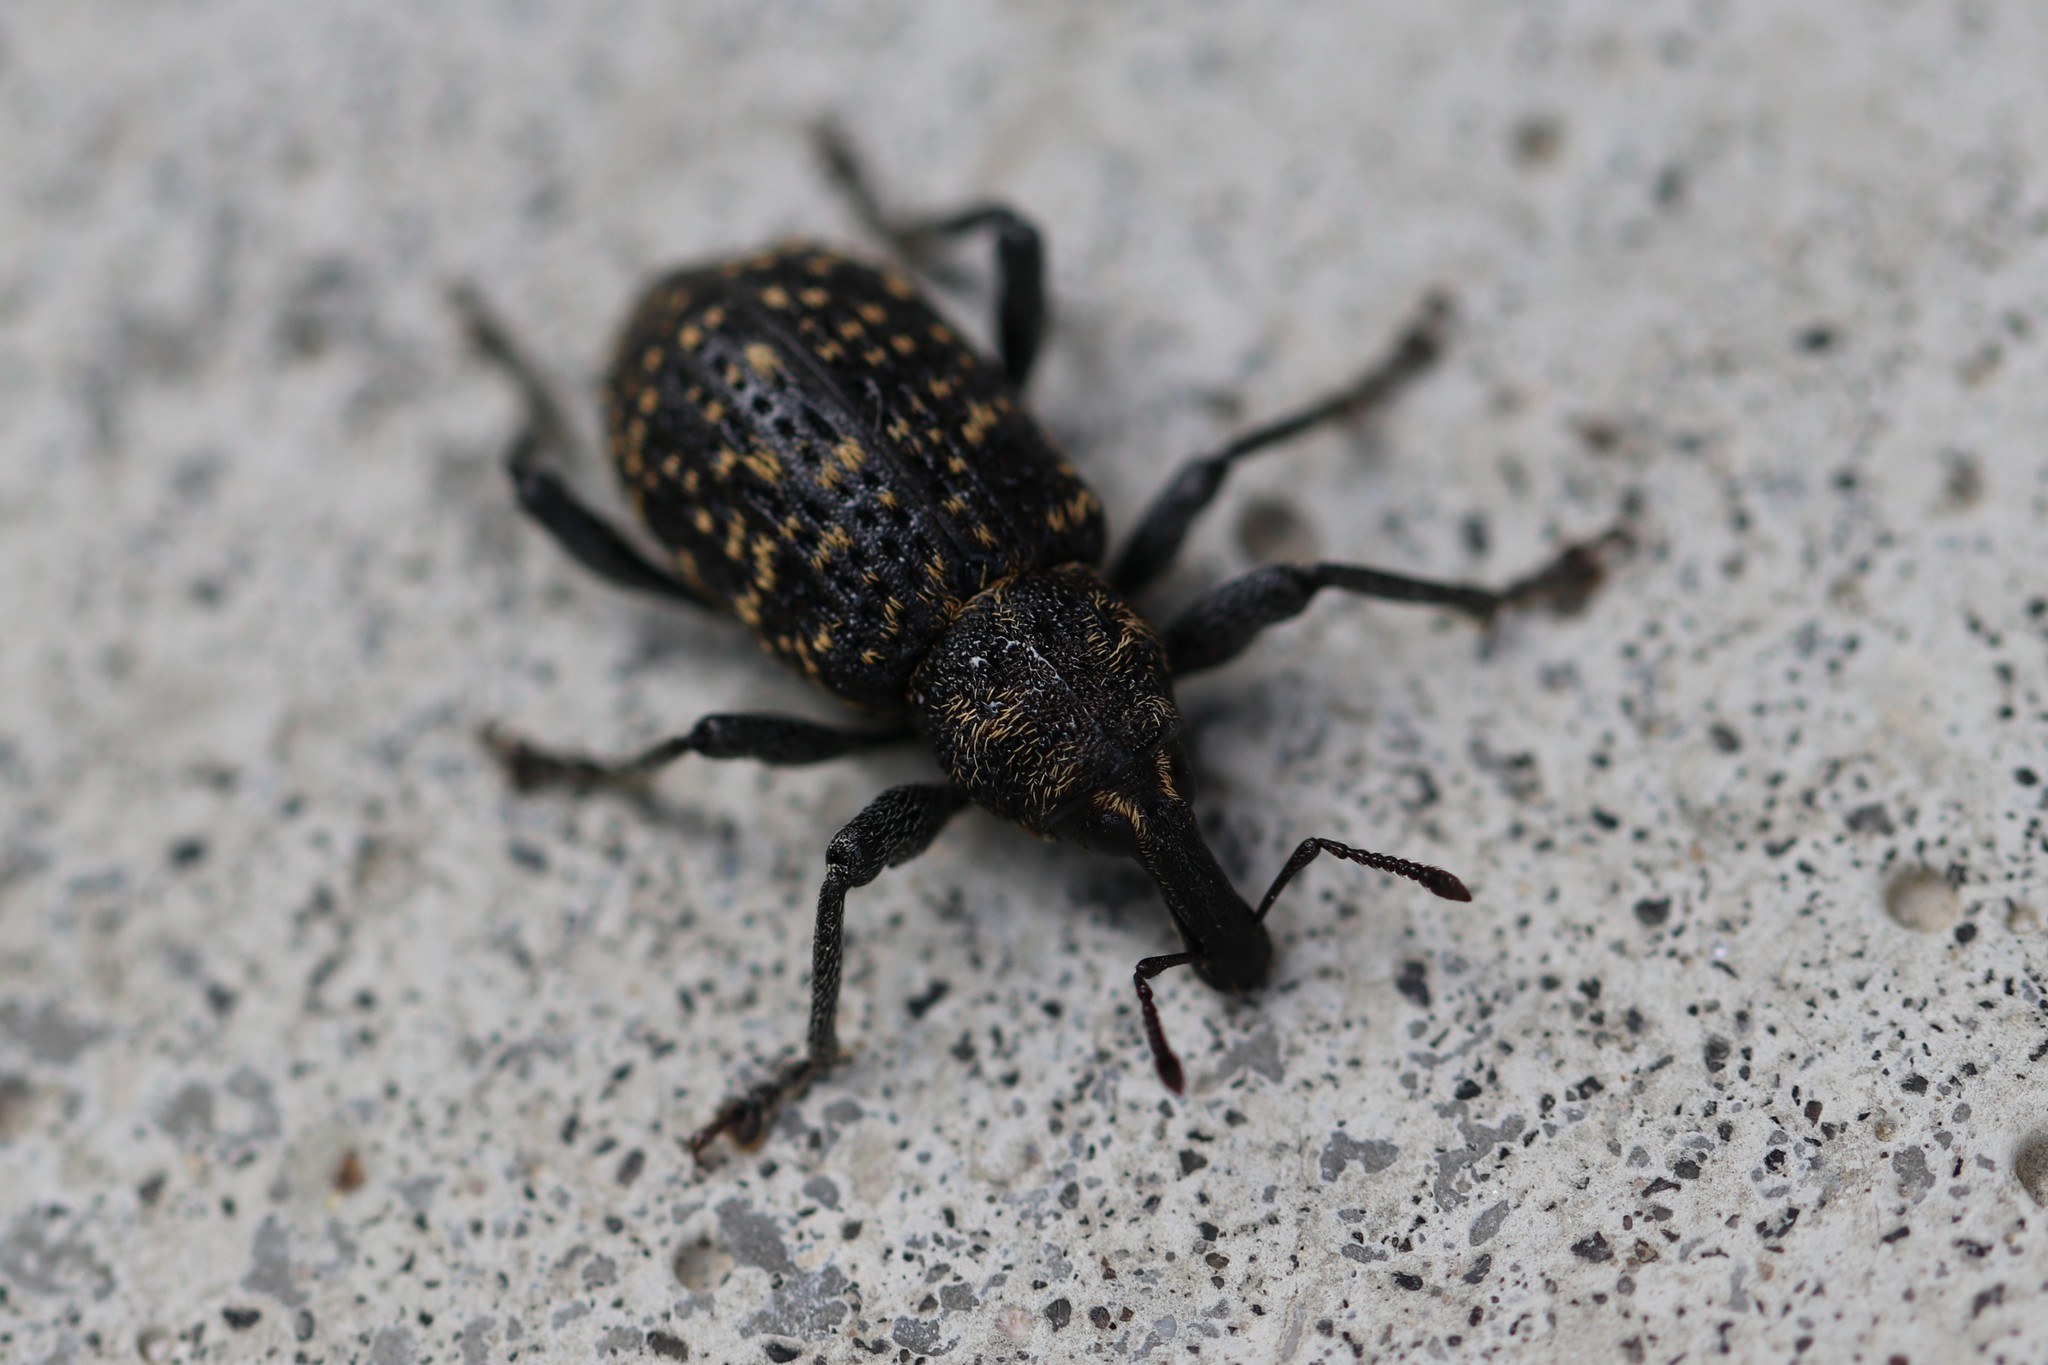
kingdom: Animalia
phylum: Arthropoda
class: Insecta
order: Coleoptera
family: Curculionidae
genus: Hylobius
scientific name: Hylobius excavatus
